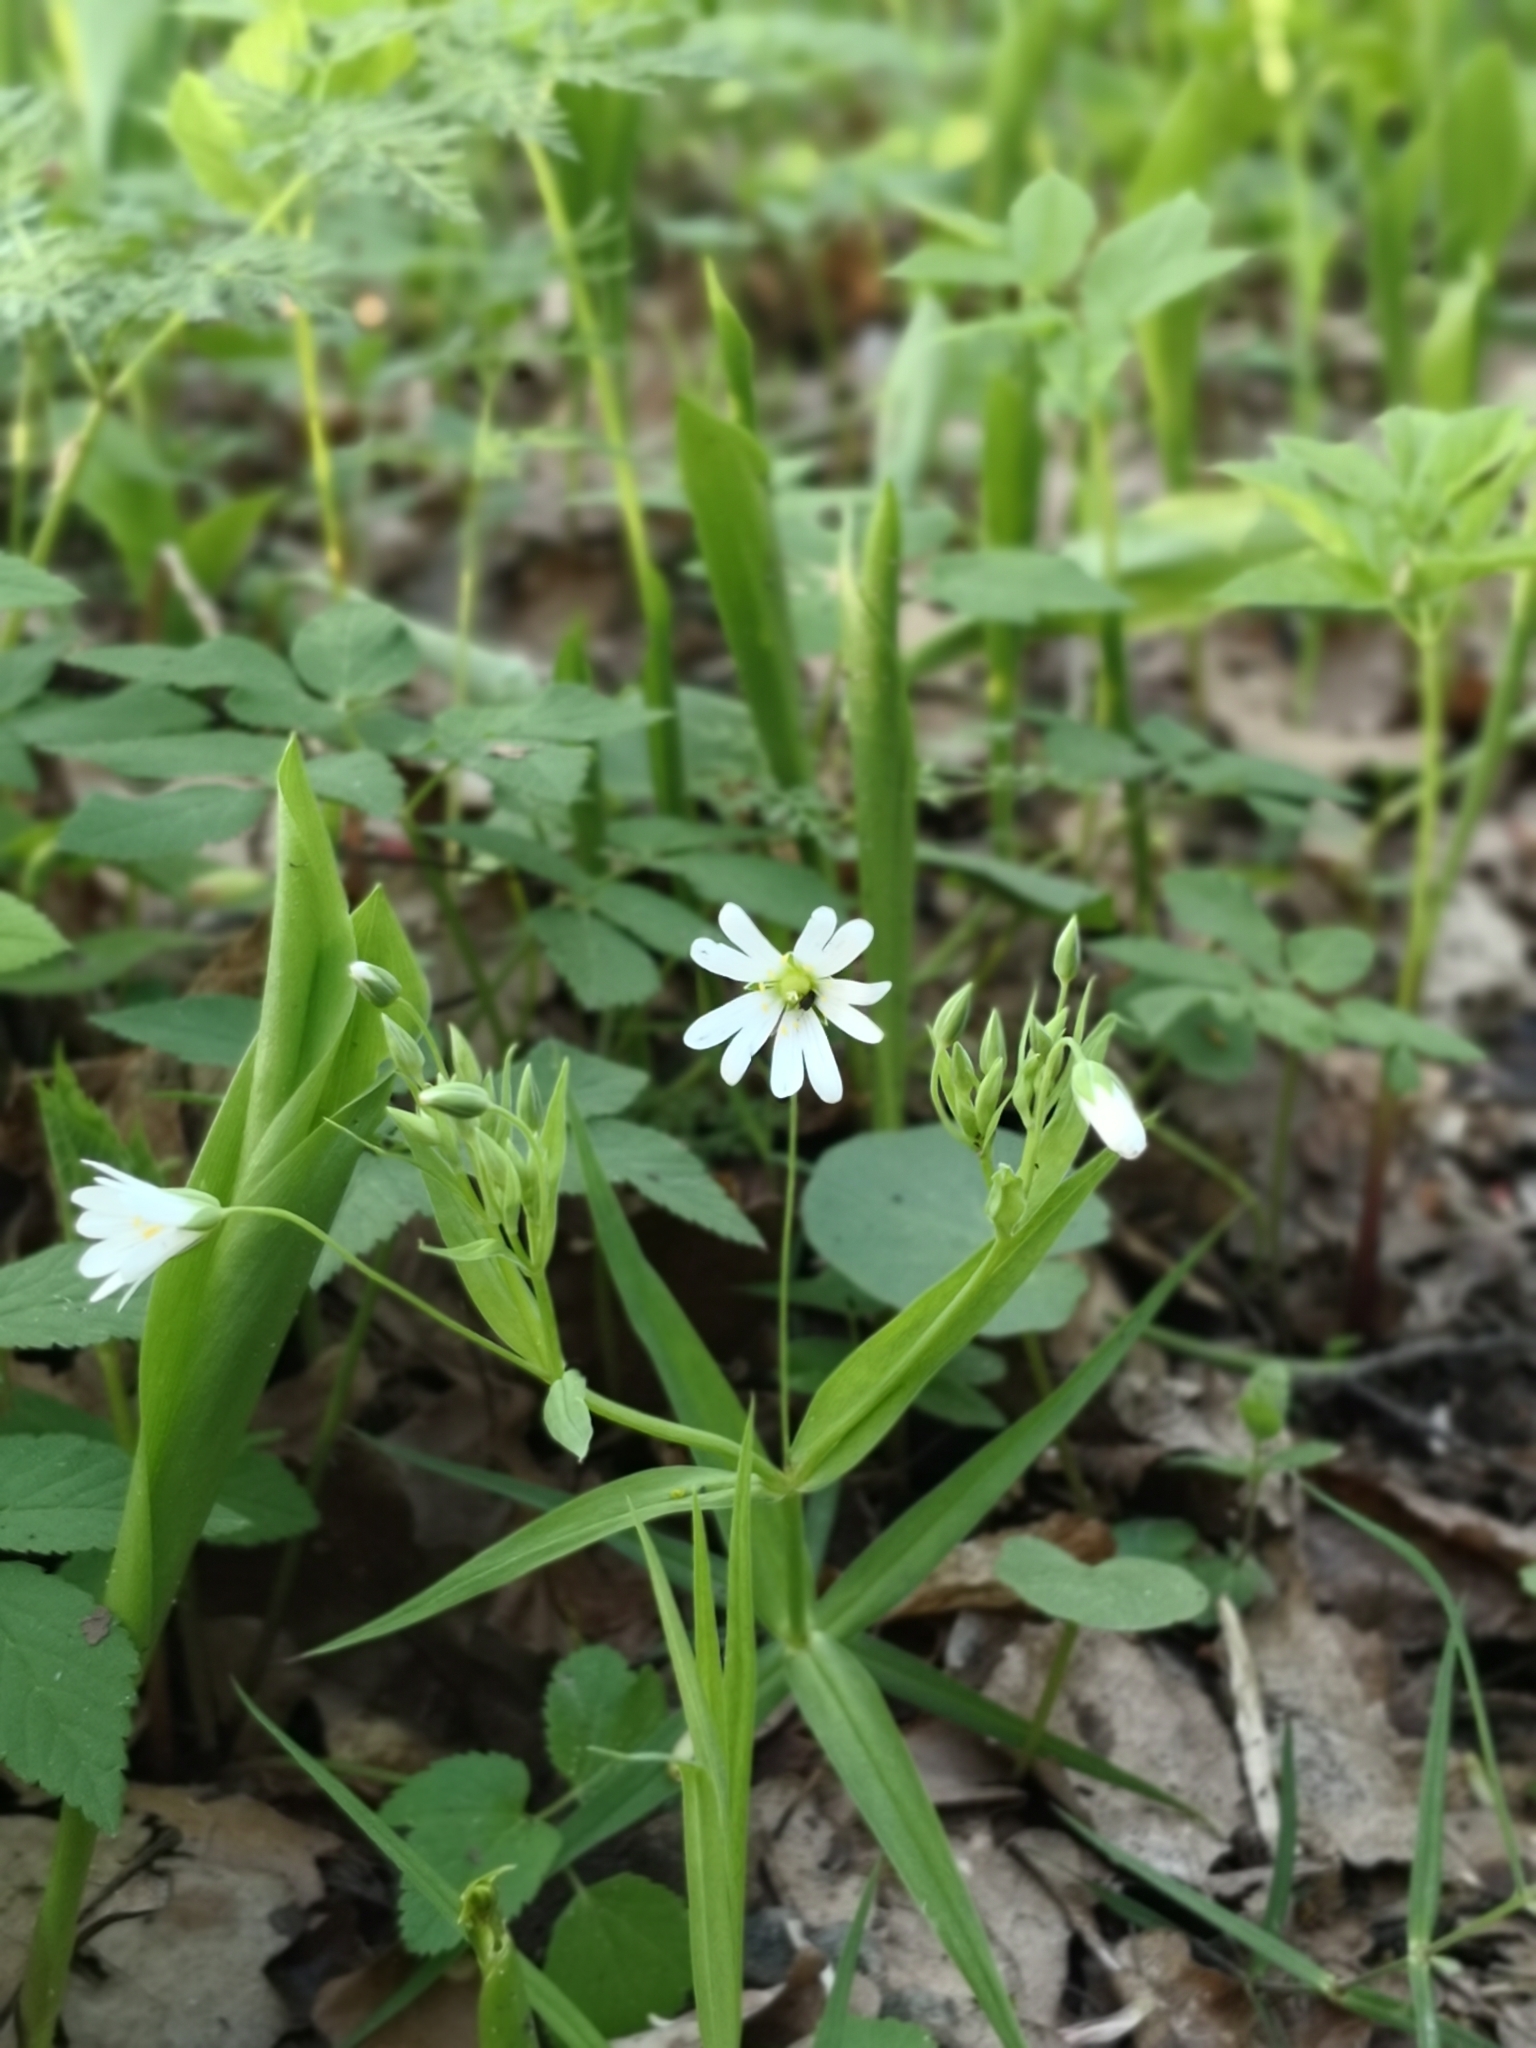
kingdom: Plantae
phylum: Tracheophyta
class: Magnoliopsida
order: Caryophyllales
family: Caryophyllaceae
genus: Rabelera
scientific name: Rabelera holostea
